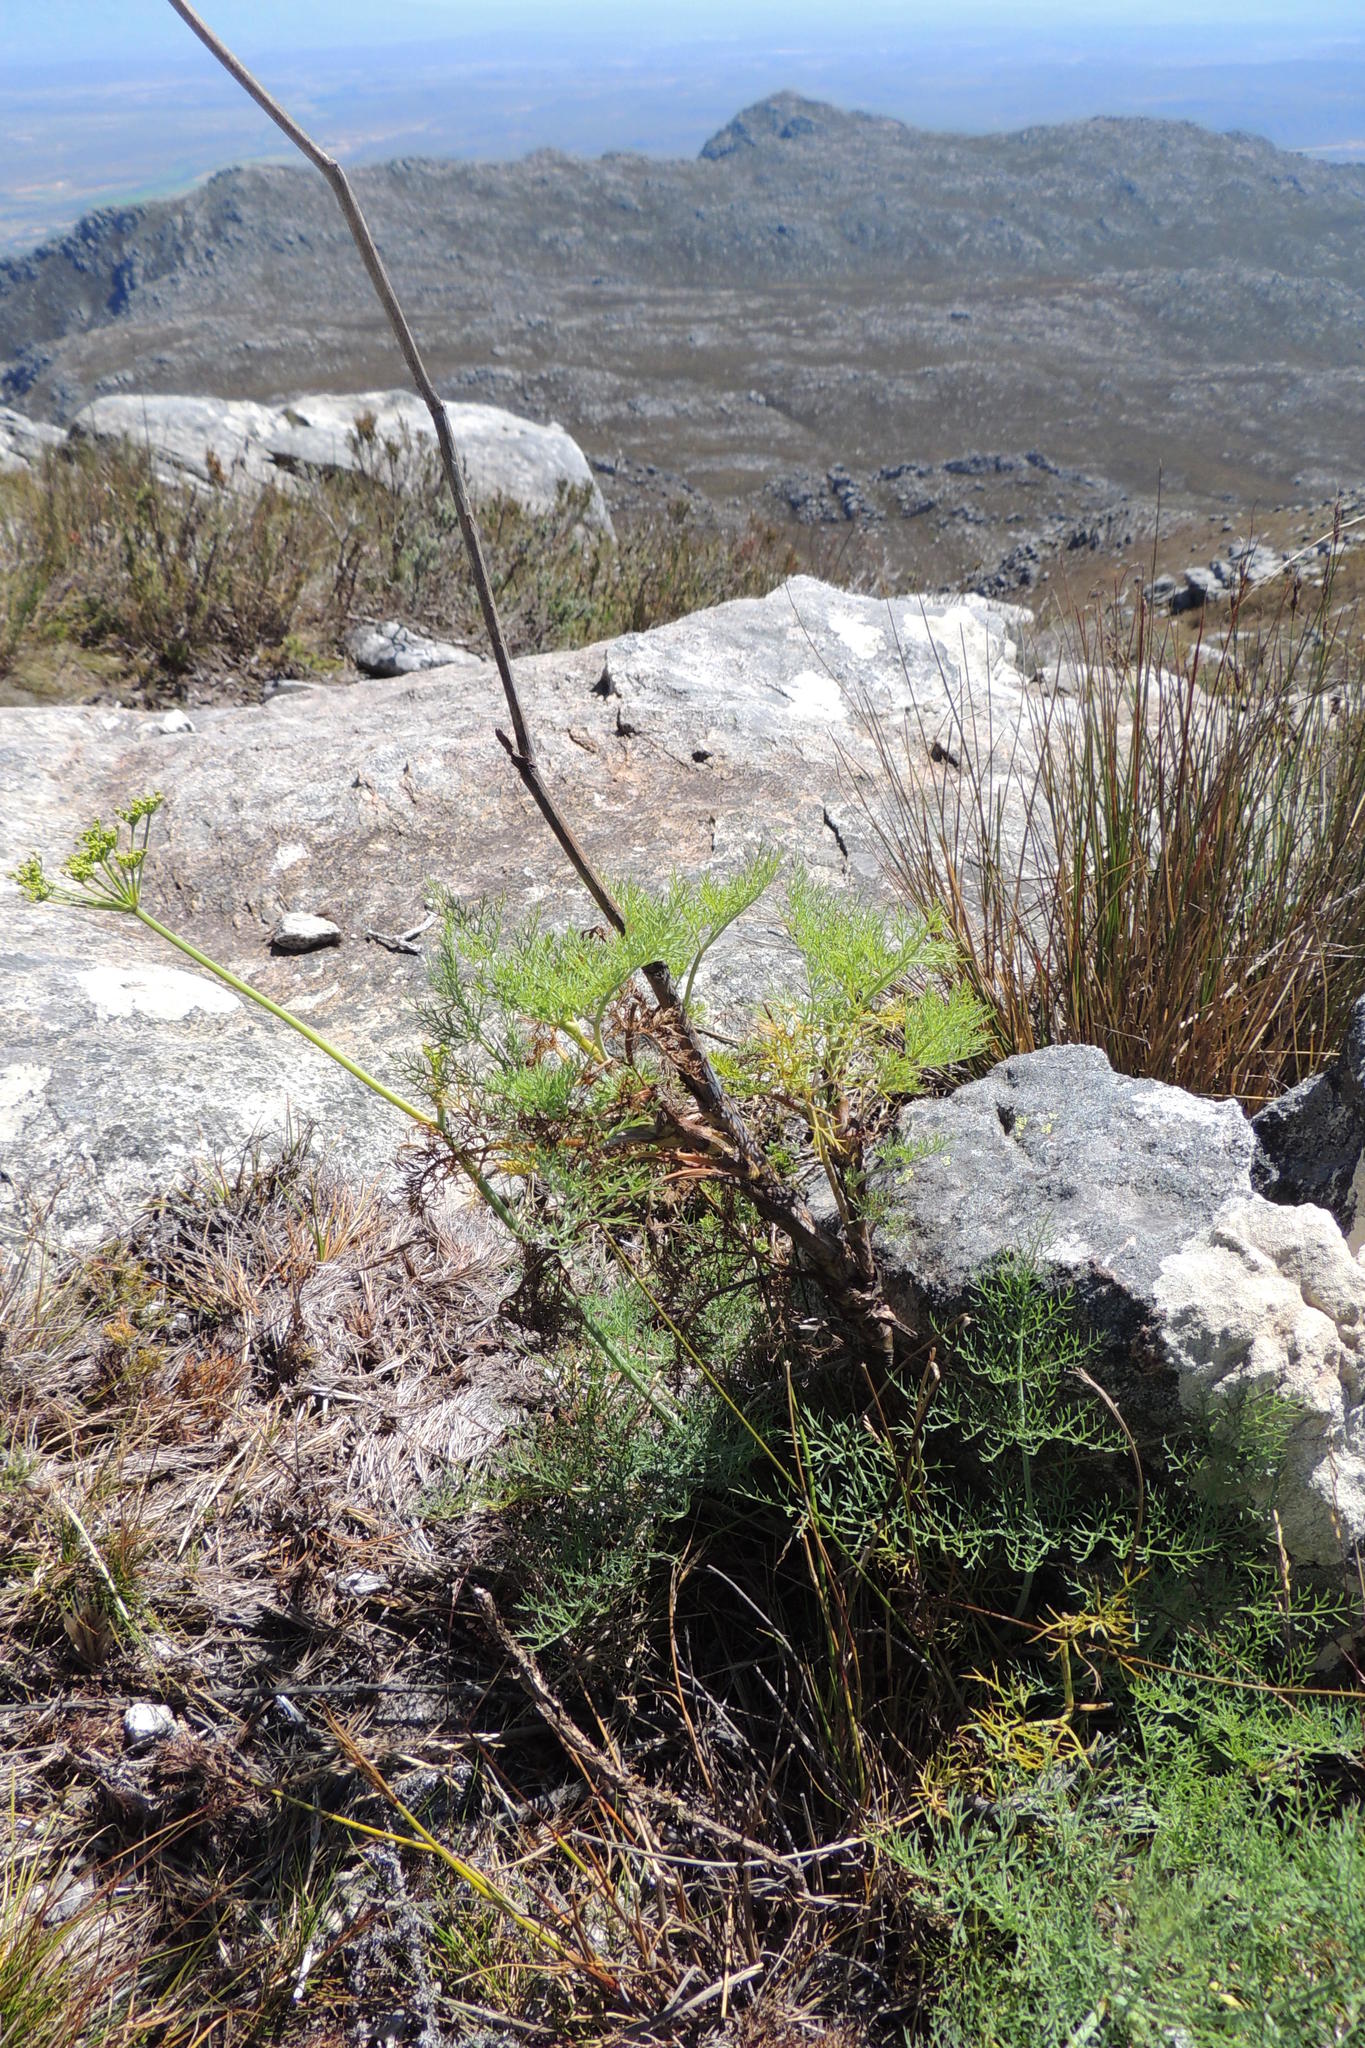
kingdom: Plantae
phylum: Tracheophyta
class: Magnoliopsida
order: Apiales
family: Apiaceae
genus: Notobubon
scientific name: Notobubon ferulaceum
